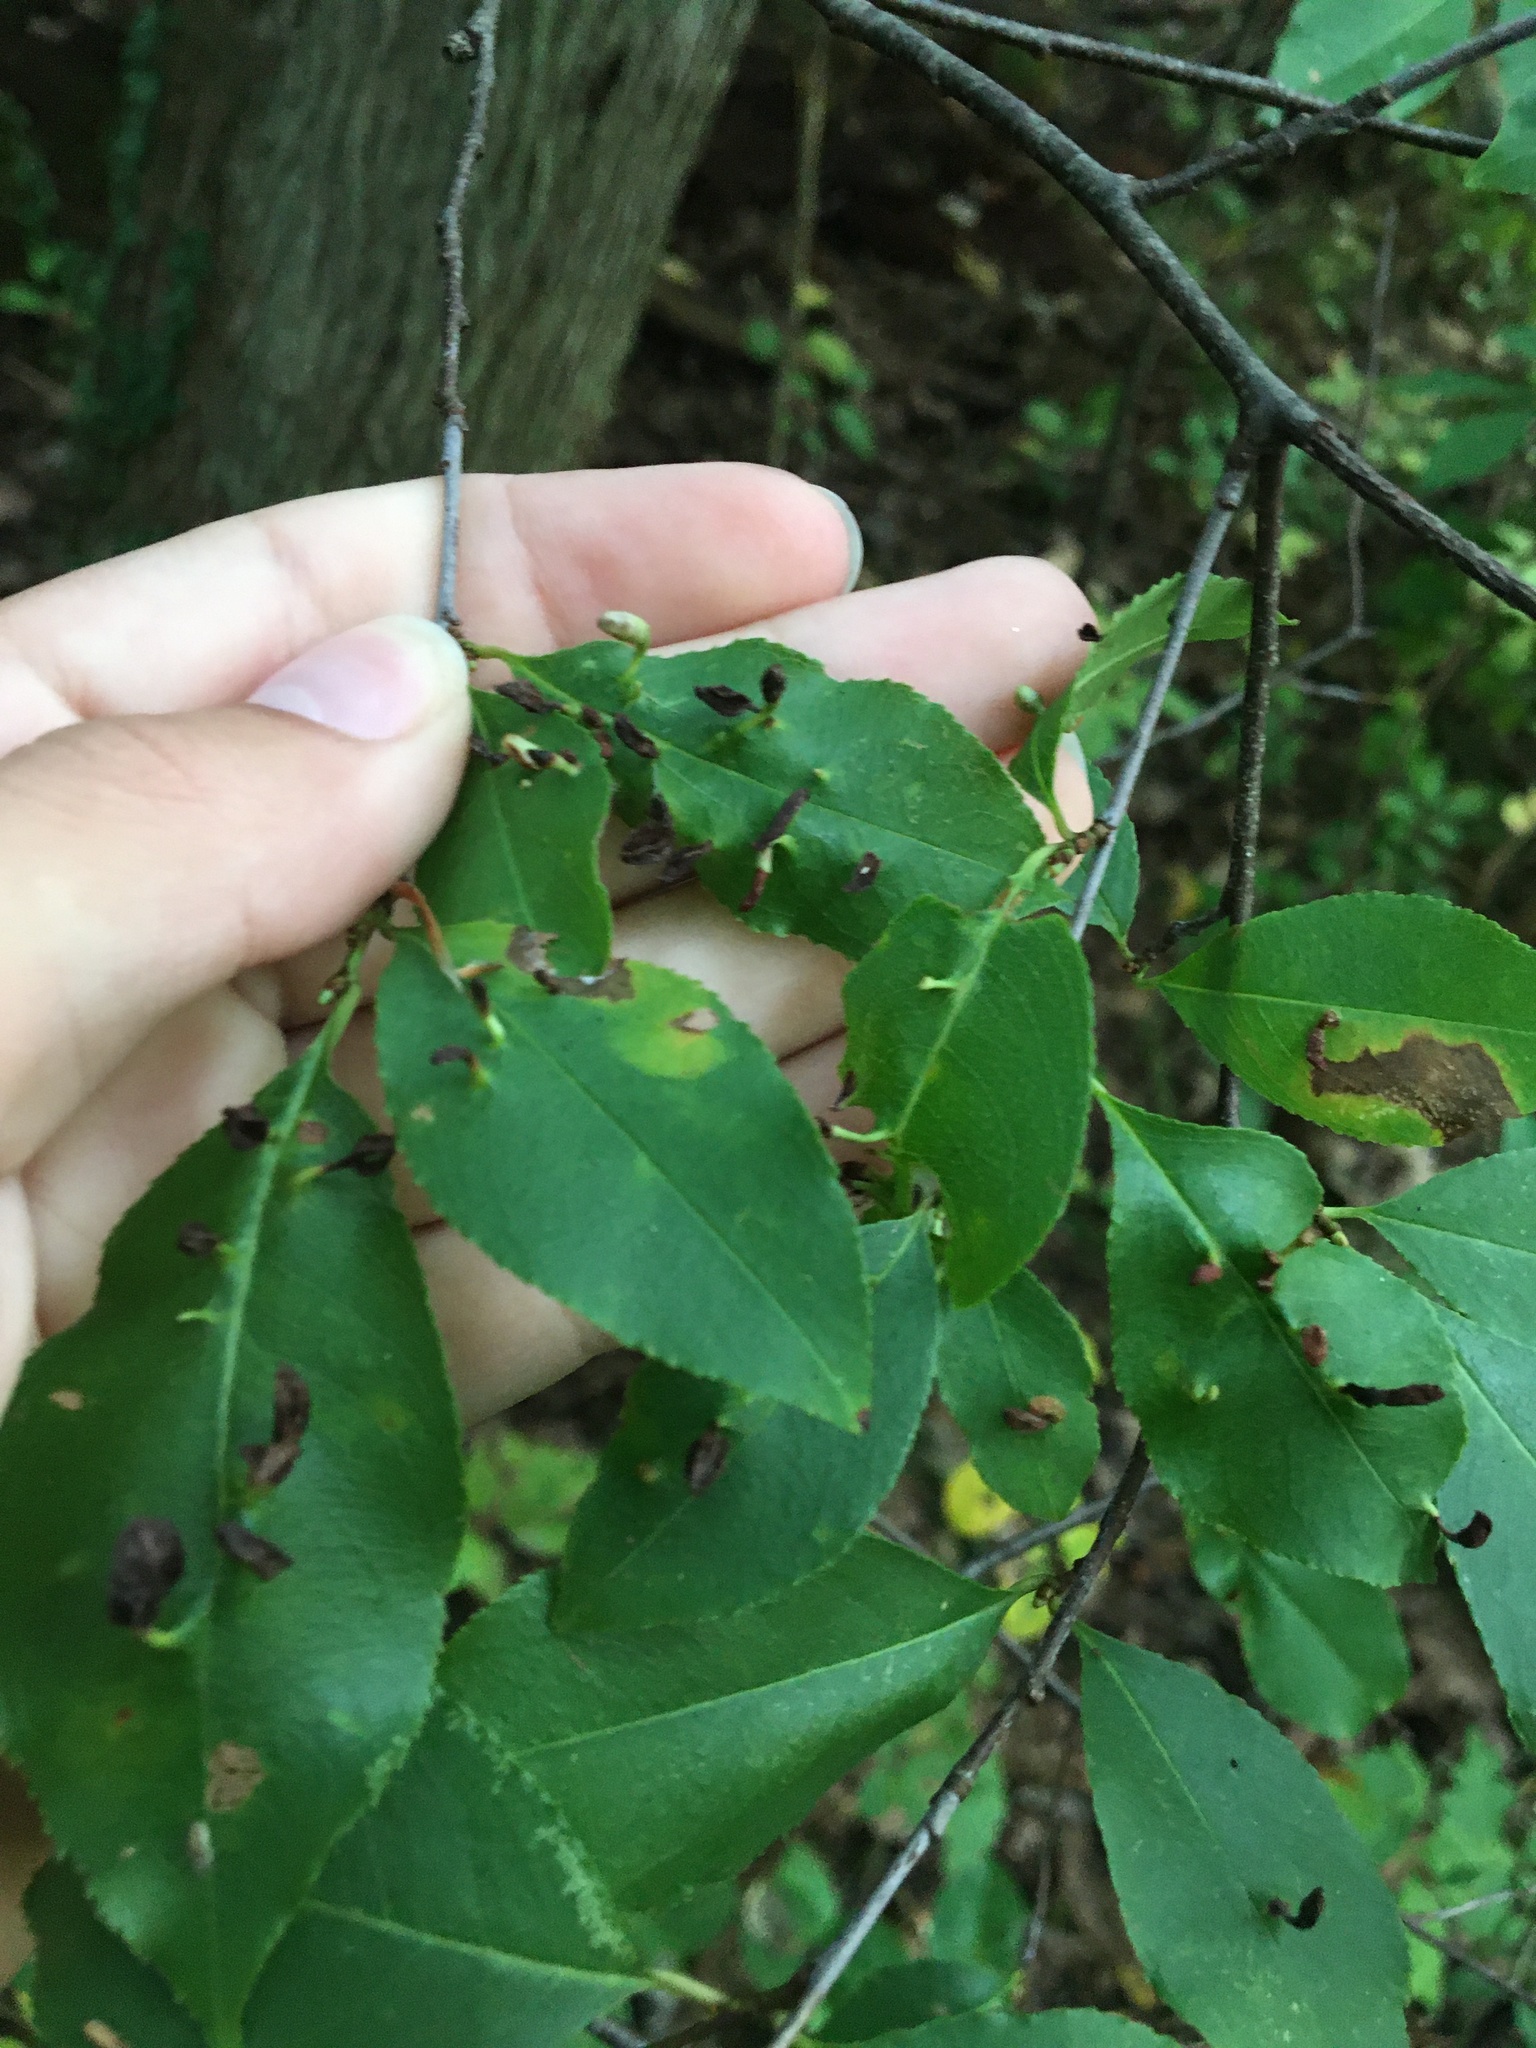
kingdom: Animalia
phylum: Arthropoda
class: Arachnida
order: Trombidiformes
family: Eriophyidae
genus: Eriophyes
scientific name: Eriophyes
